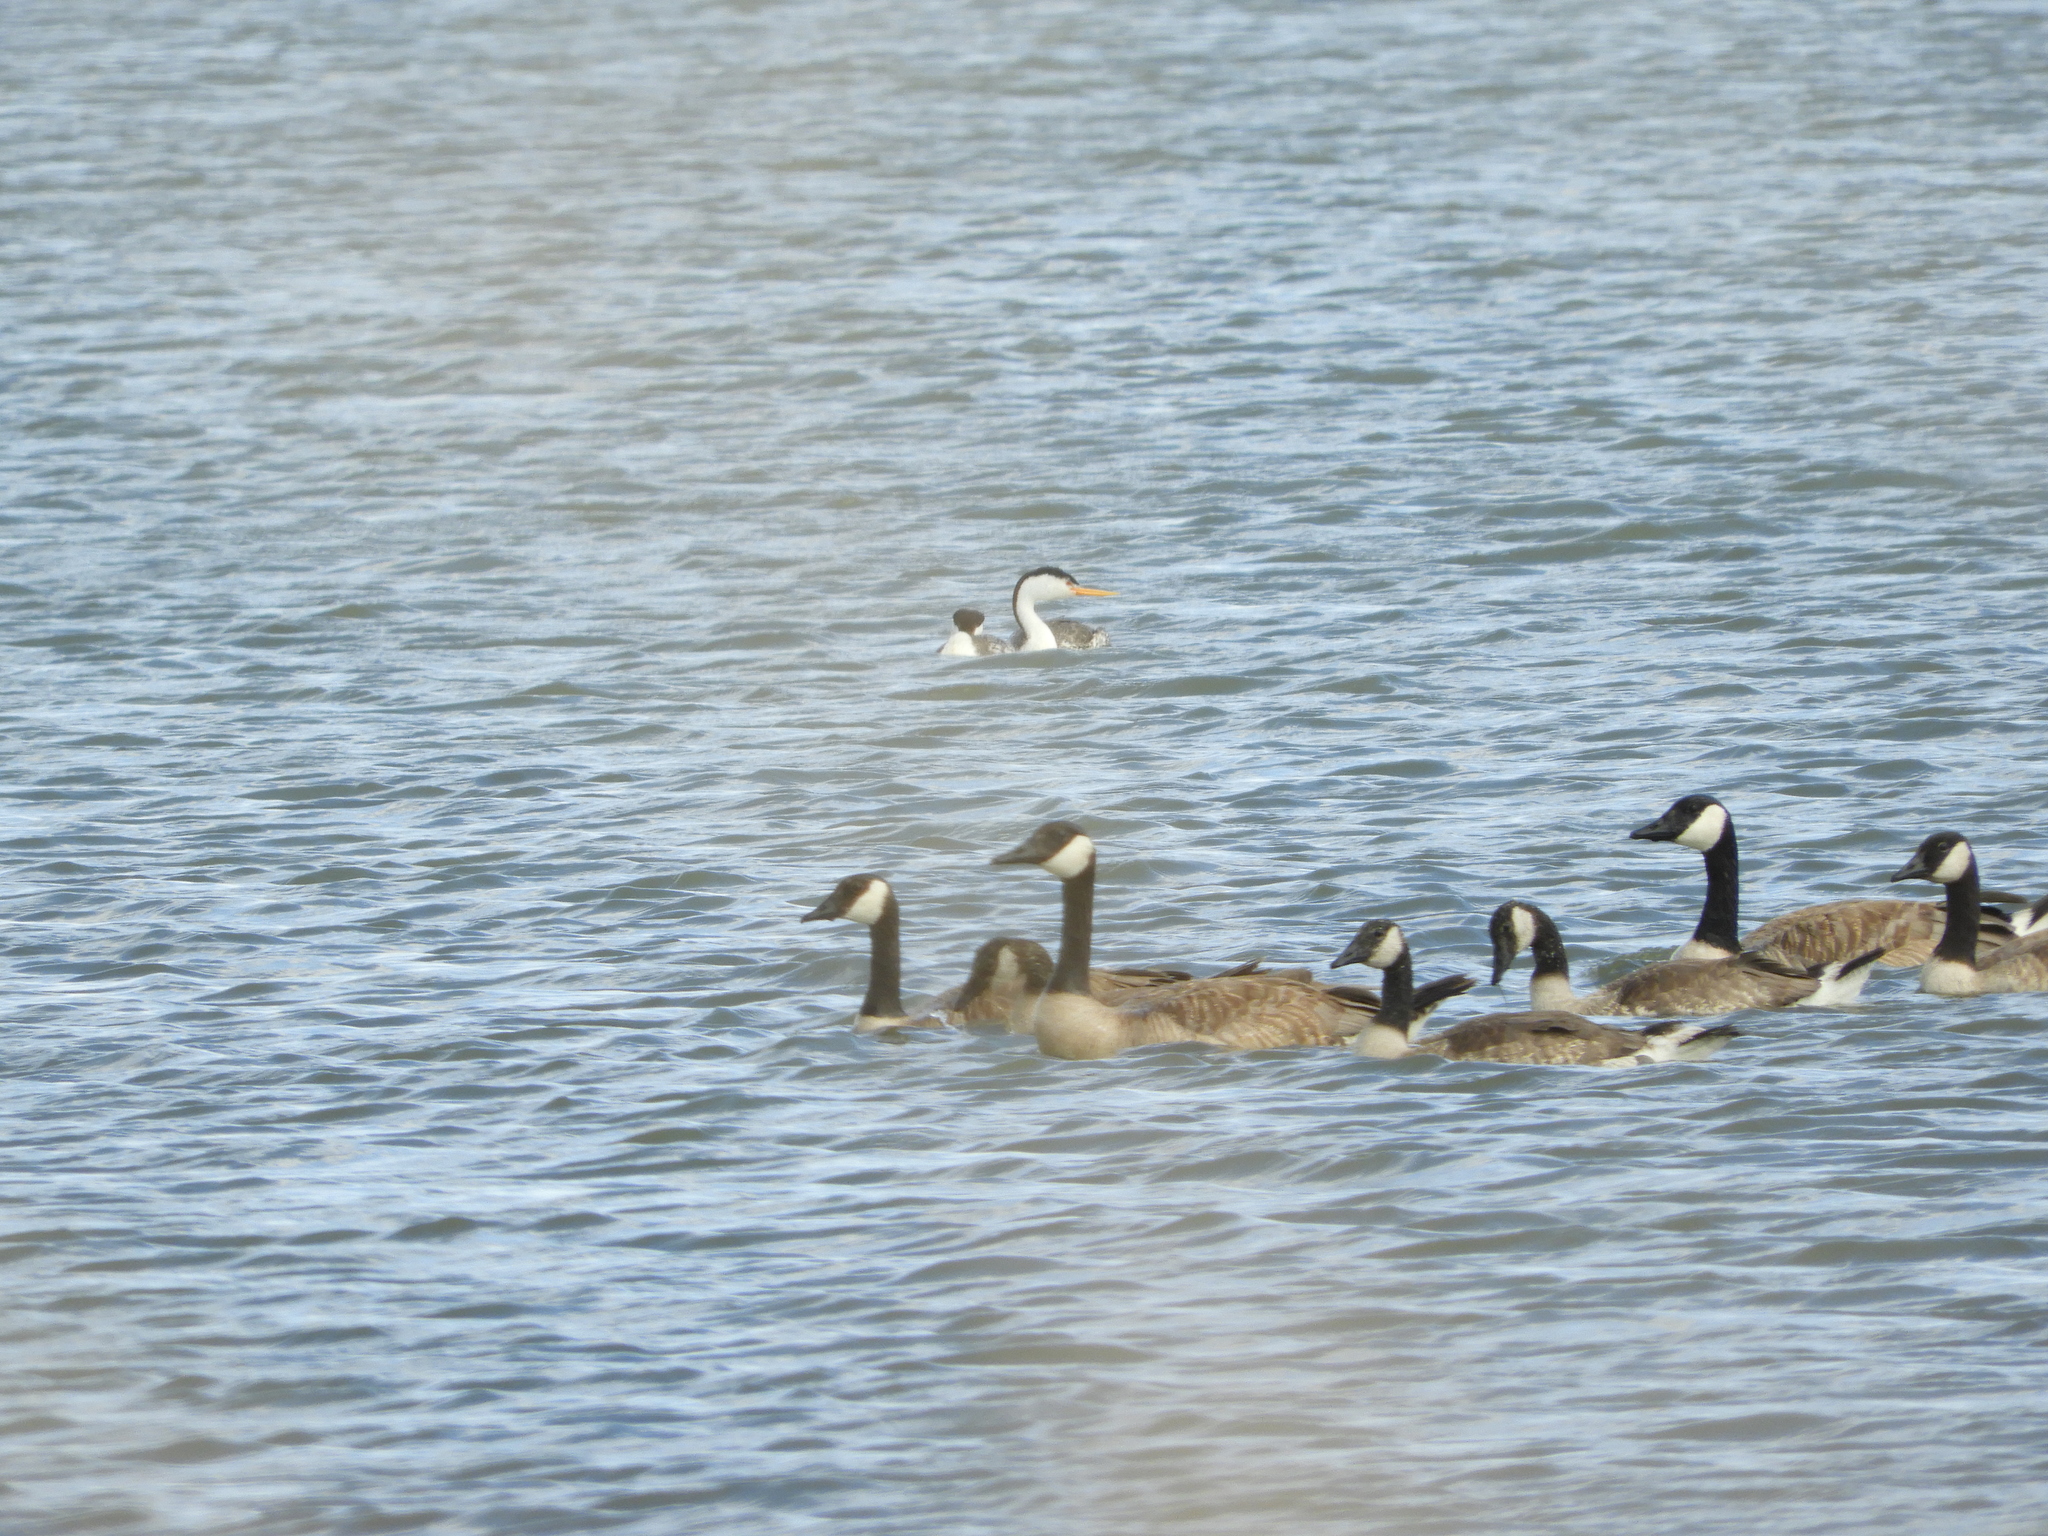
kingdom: Animalia
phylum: Chordata
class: Aves
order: Anseriformes
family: Anatidae
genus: Branta
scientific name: Branta canadensis
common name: Canada goose
